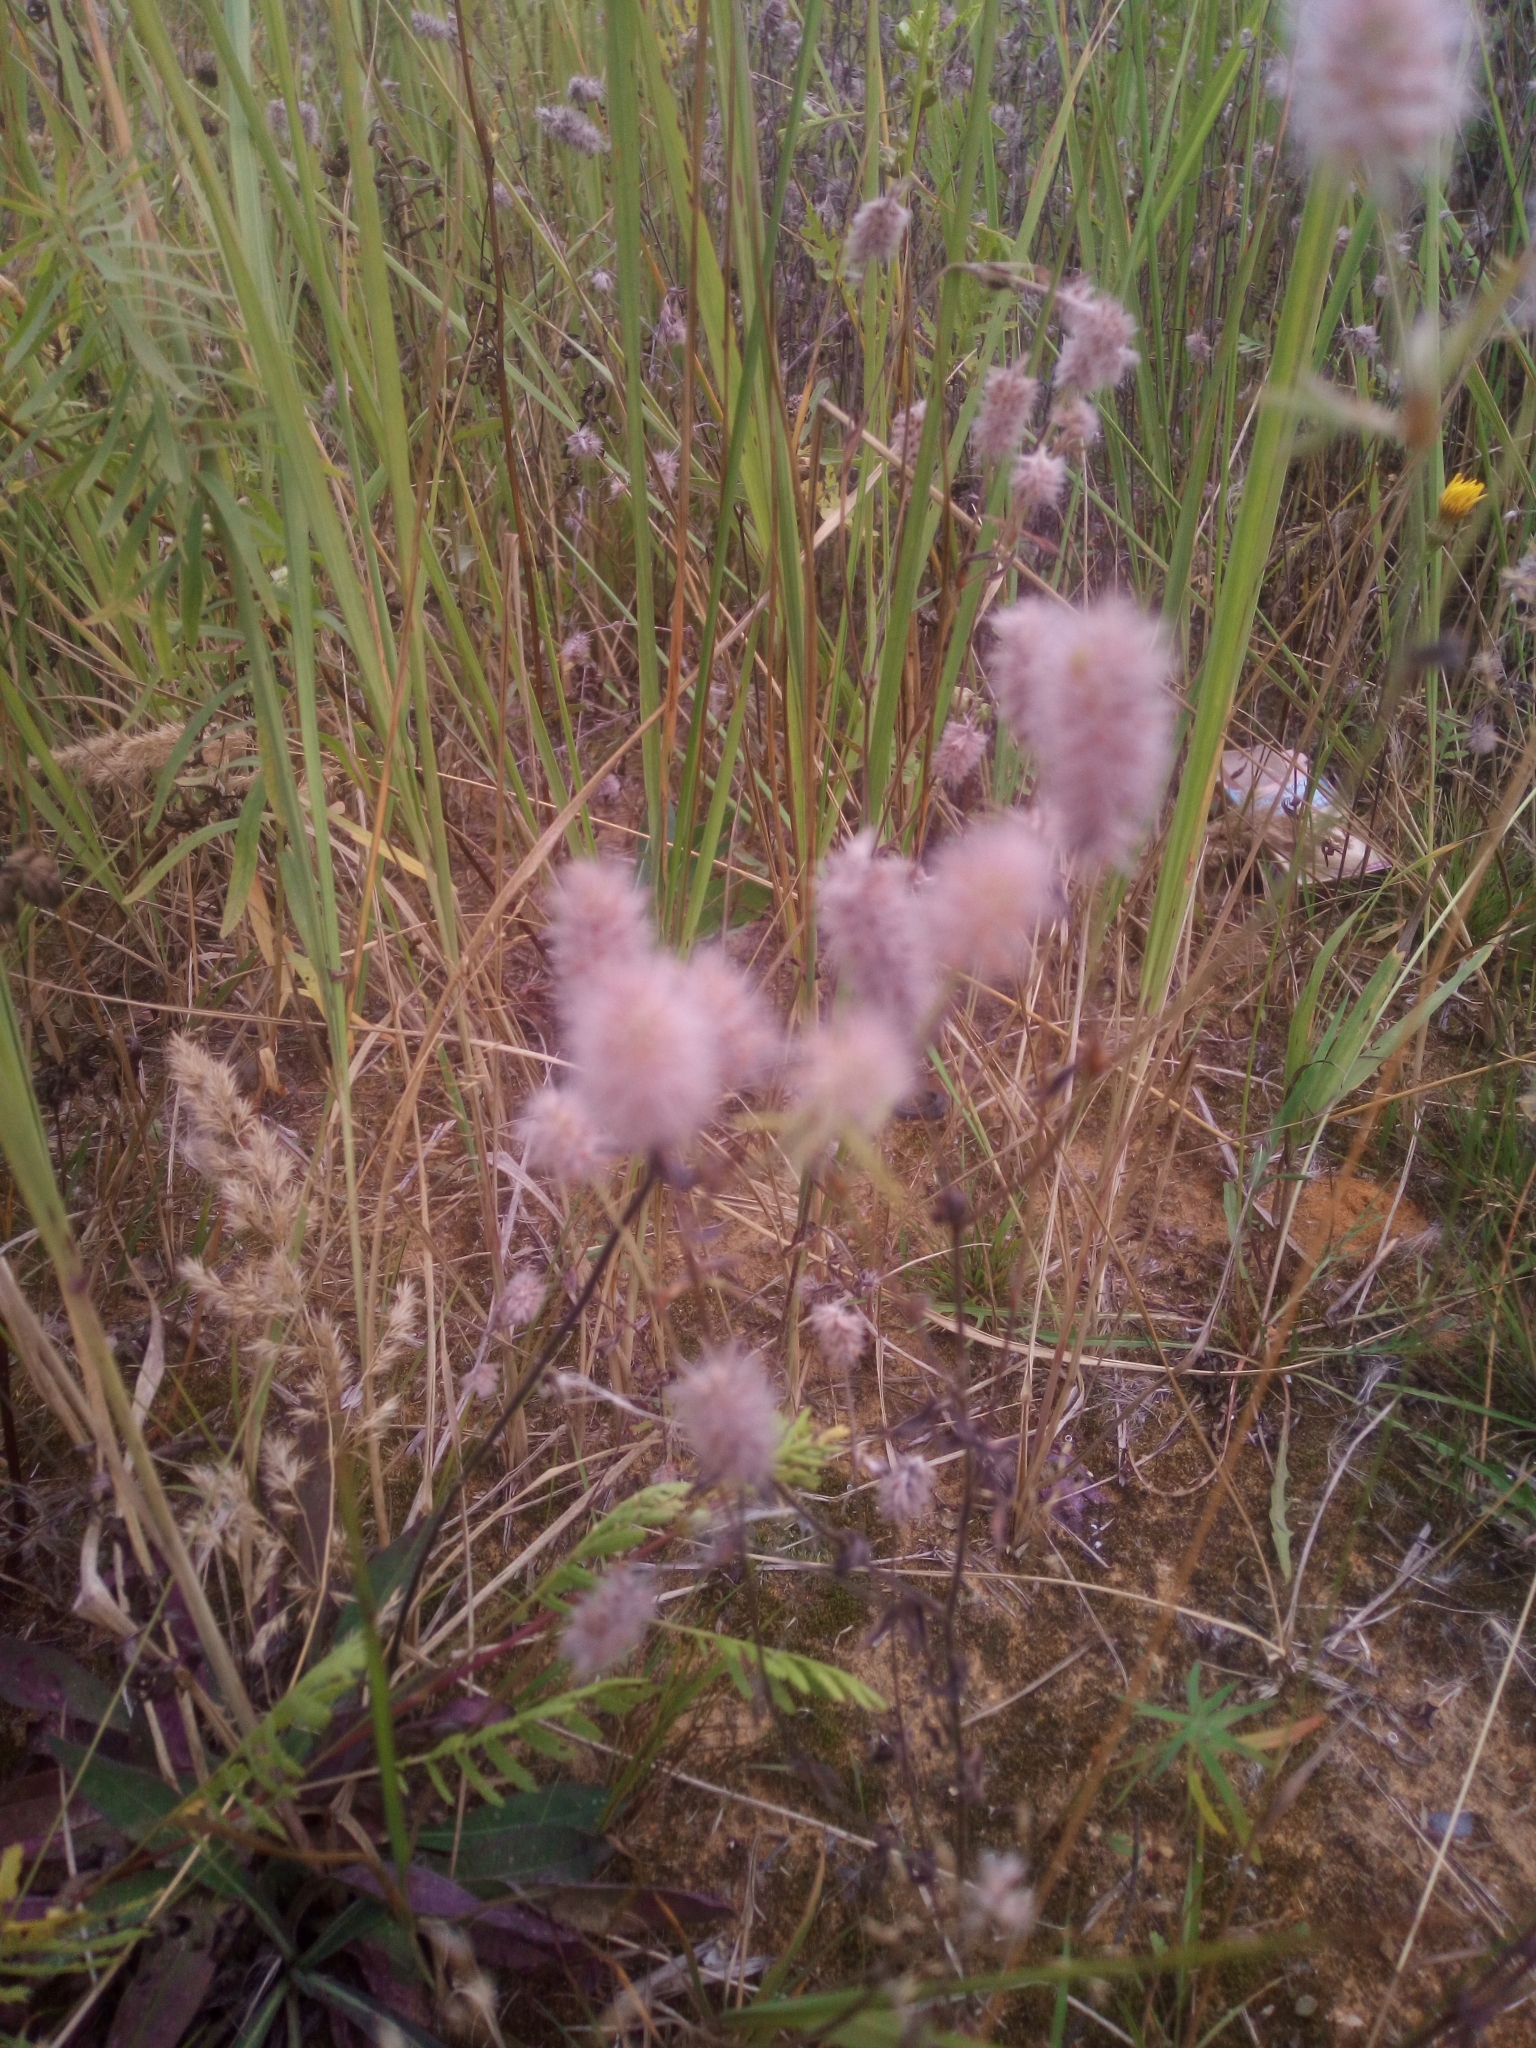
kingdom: Plantae
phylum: Tracheophyta
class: Magnoliopsida
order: Fabales
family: Fabaceae
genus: Trifolium
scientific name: Trifolium arvense
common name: Hare's-foot clover
